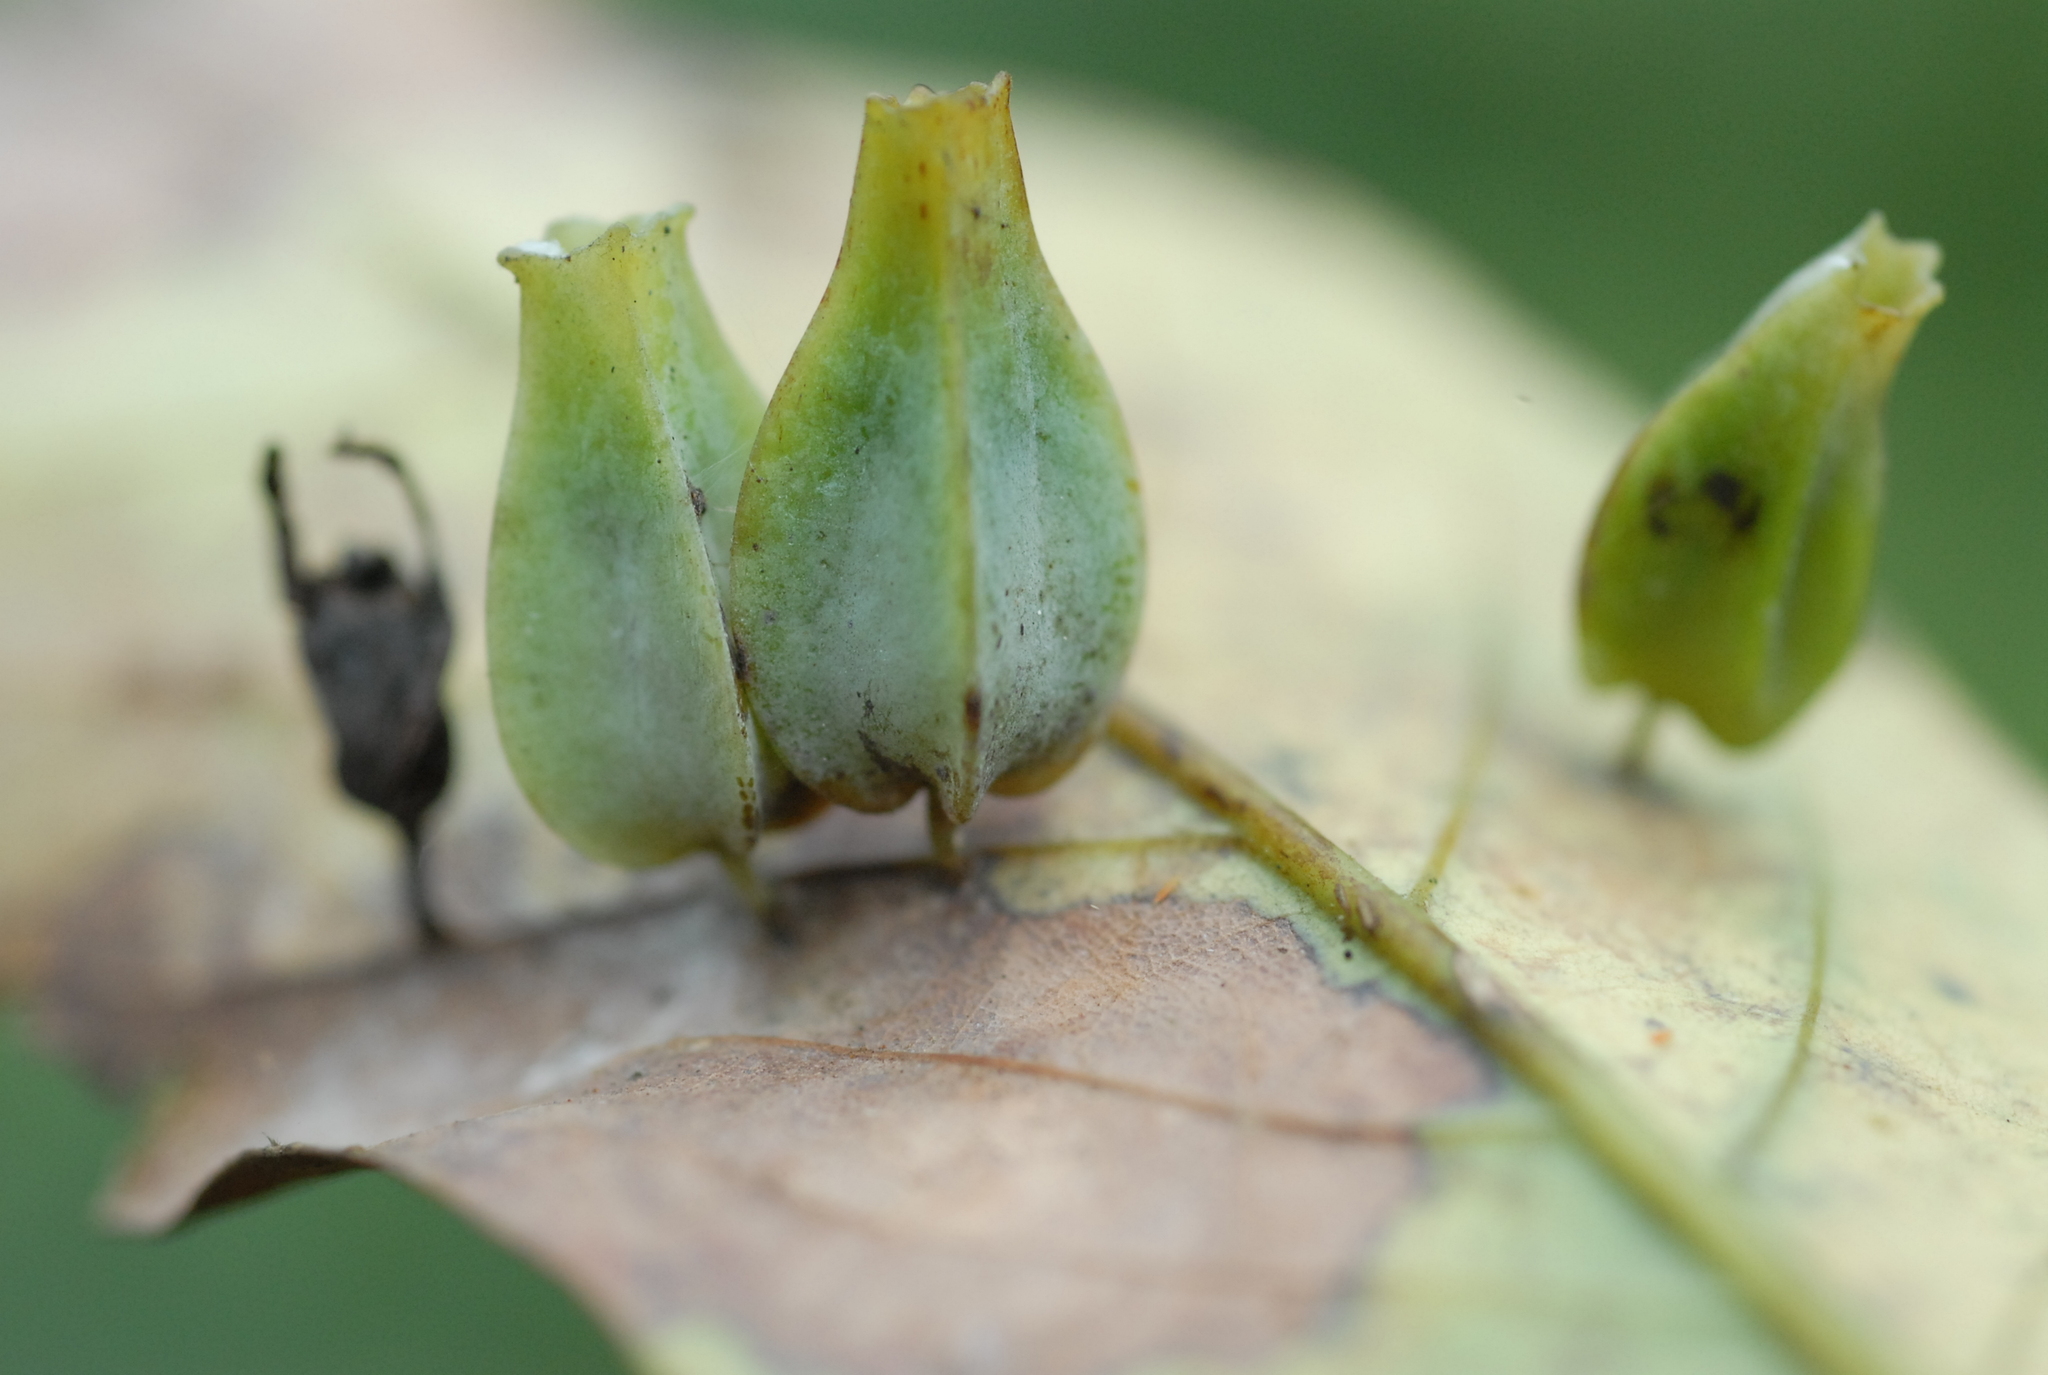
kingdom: Animalia
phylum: Arthropoda
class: Insecta
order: Diptera
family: Cecidomyiidae
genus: Daphnephila
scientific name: Daphnephila urnicola
